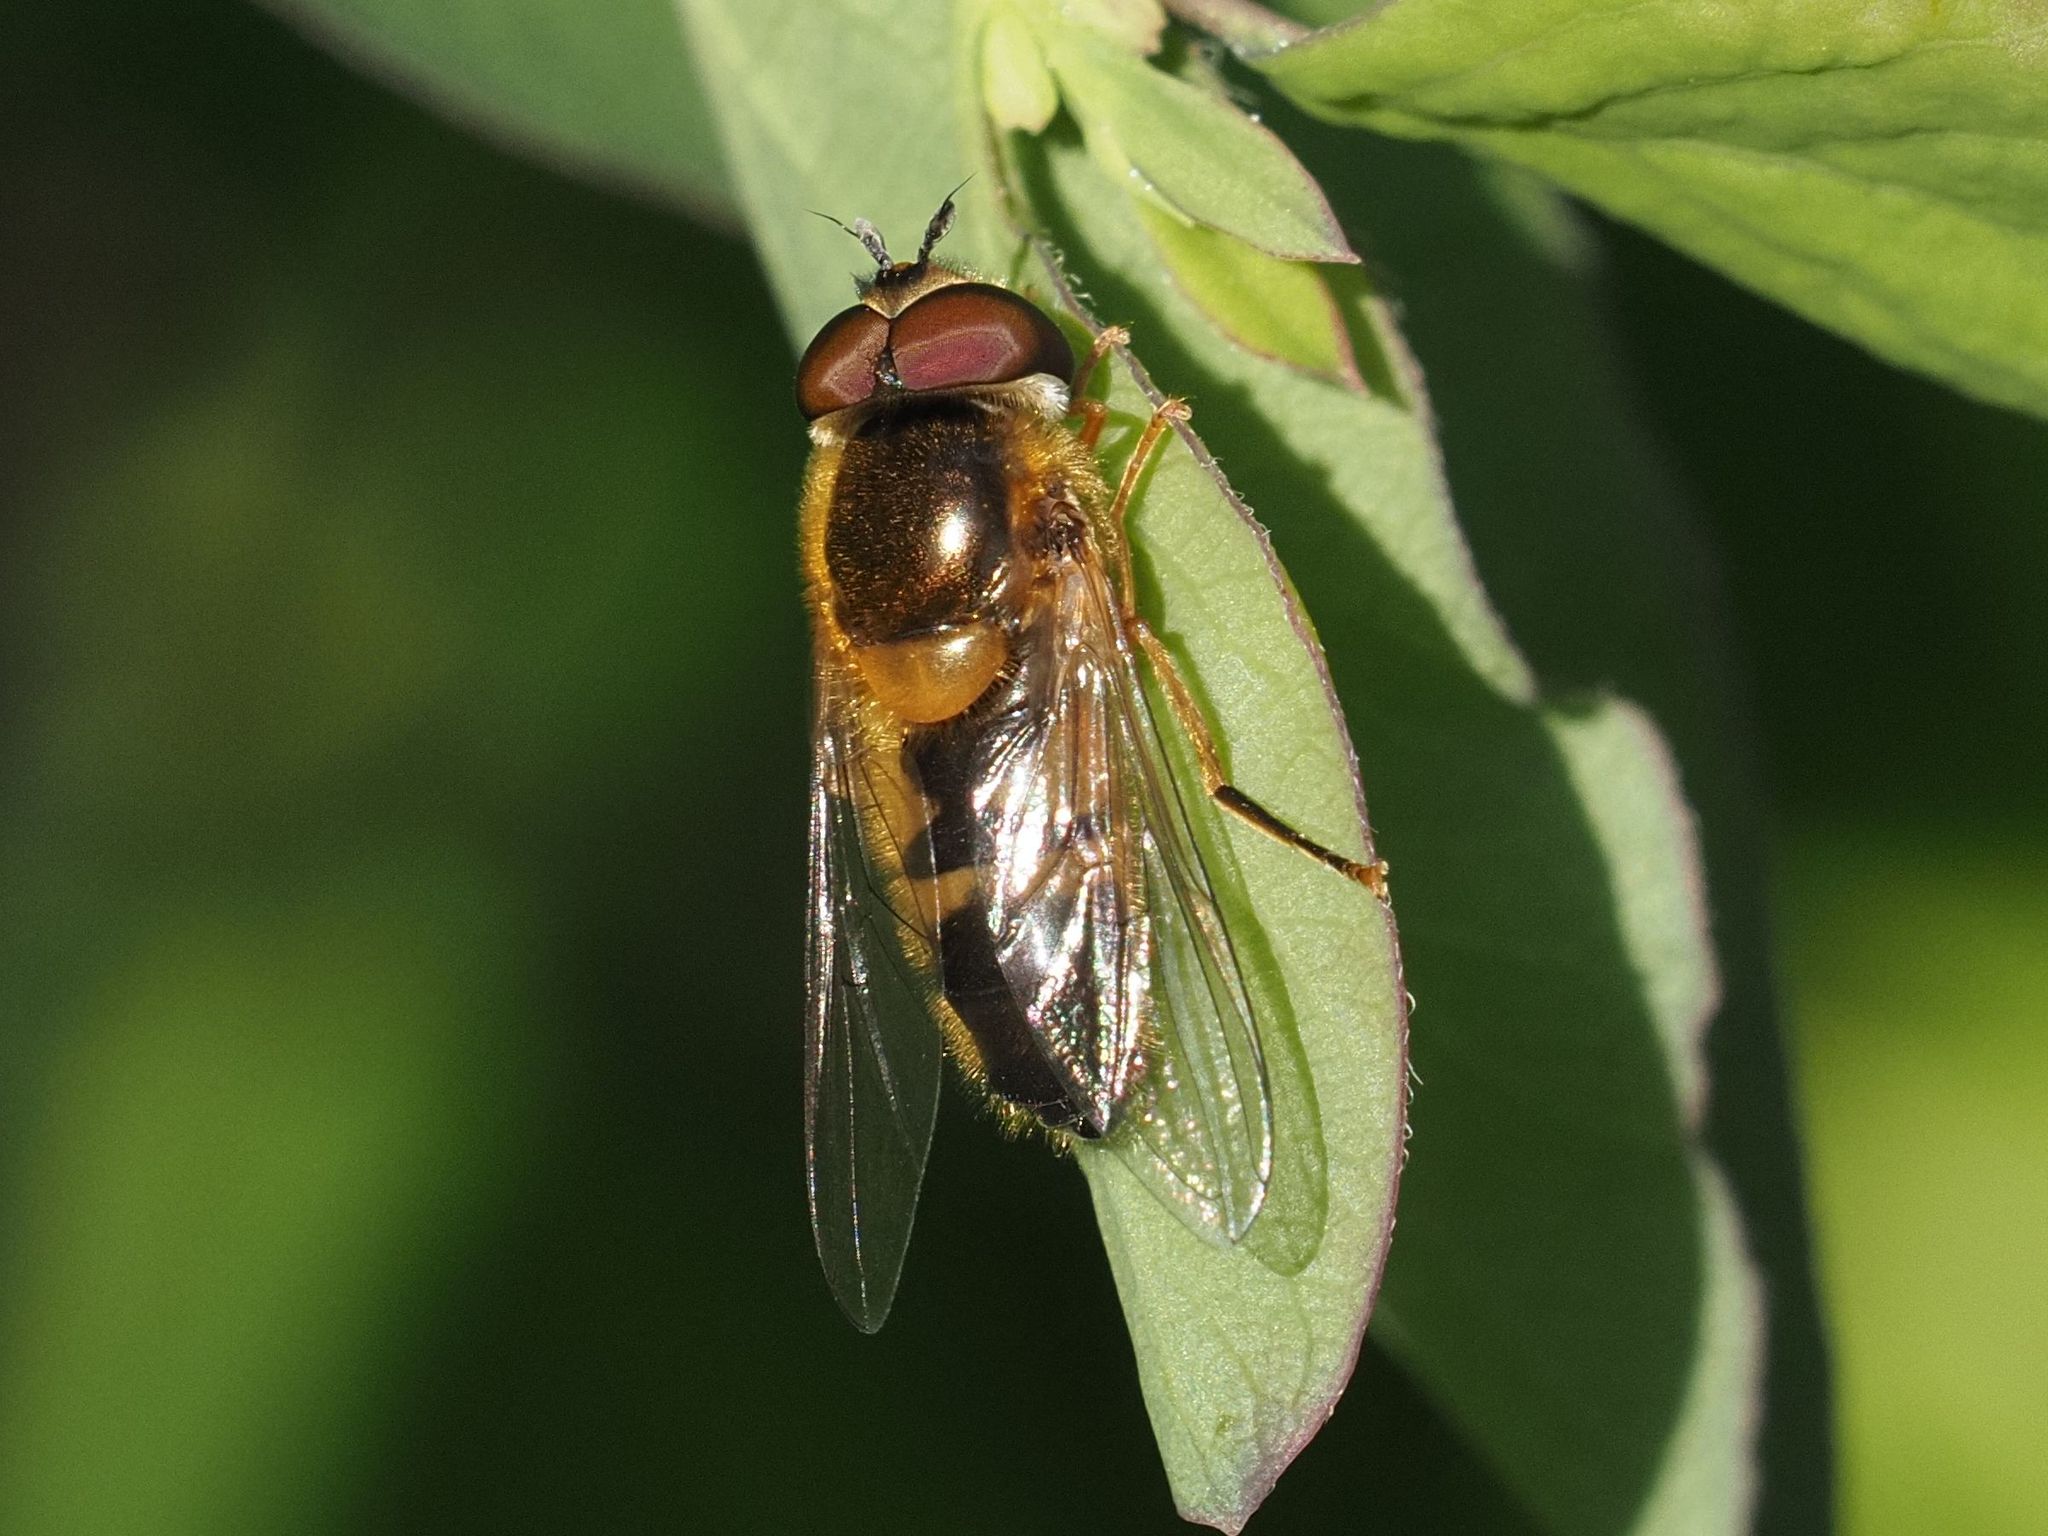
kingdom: Animalia
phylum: Arthropoda
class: Insecta
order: Diptera
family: Syrphidae
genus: Epistrophe
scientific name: Epistrophe eligans
